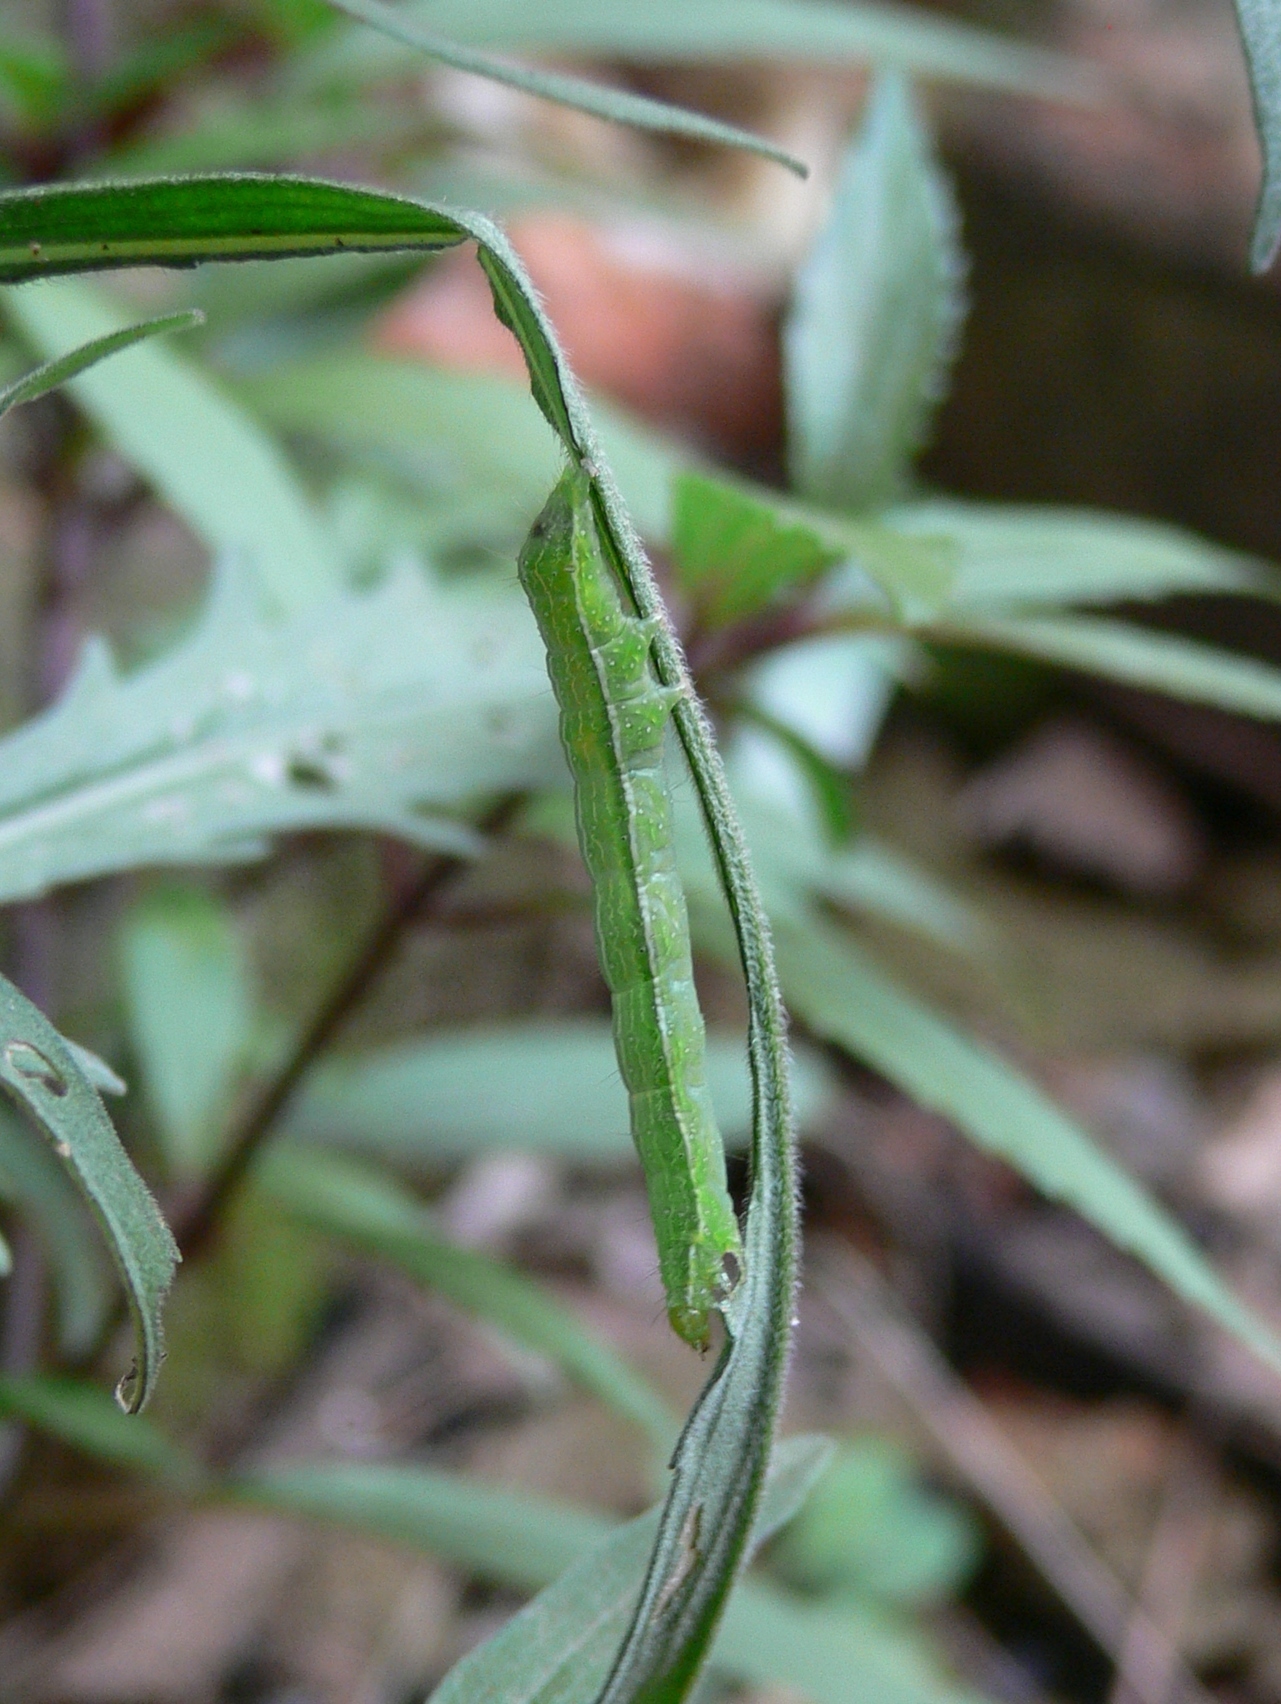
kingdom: Animalia
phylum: Arthropoda
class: Insecta
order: Lepidoptera
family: Noctuidae
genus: Vittaplusia
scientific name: Vittaplusia vittata
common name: Streaked plusia
